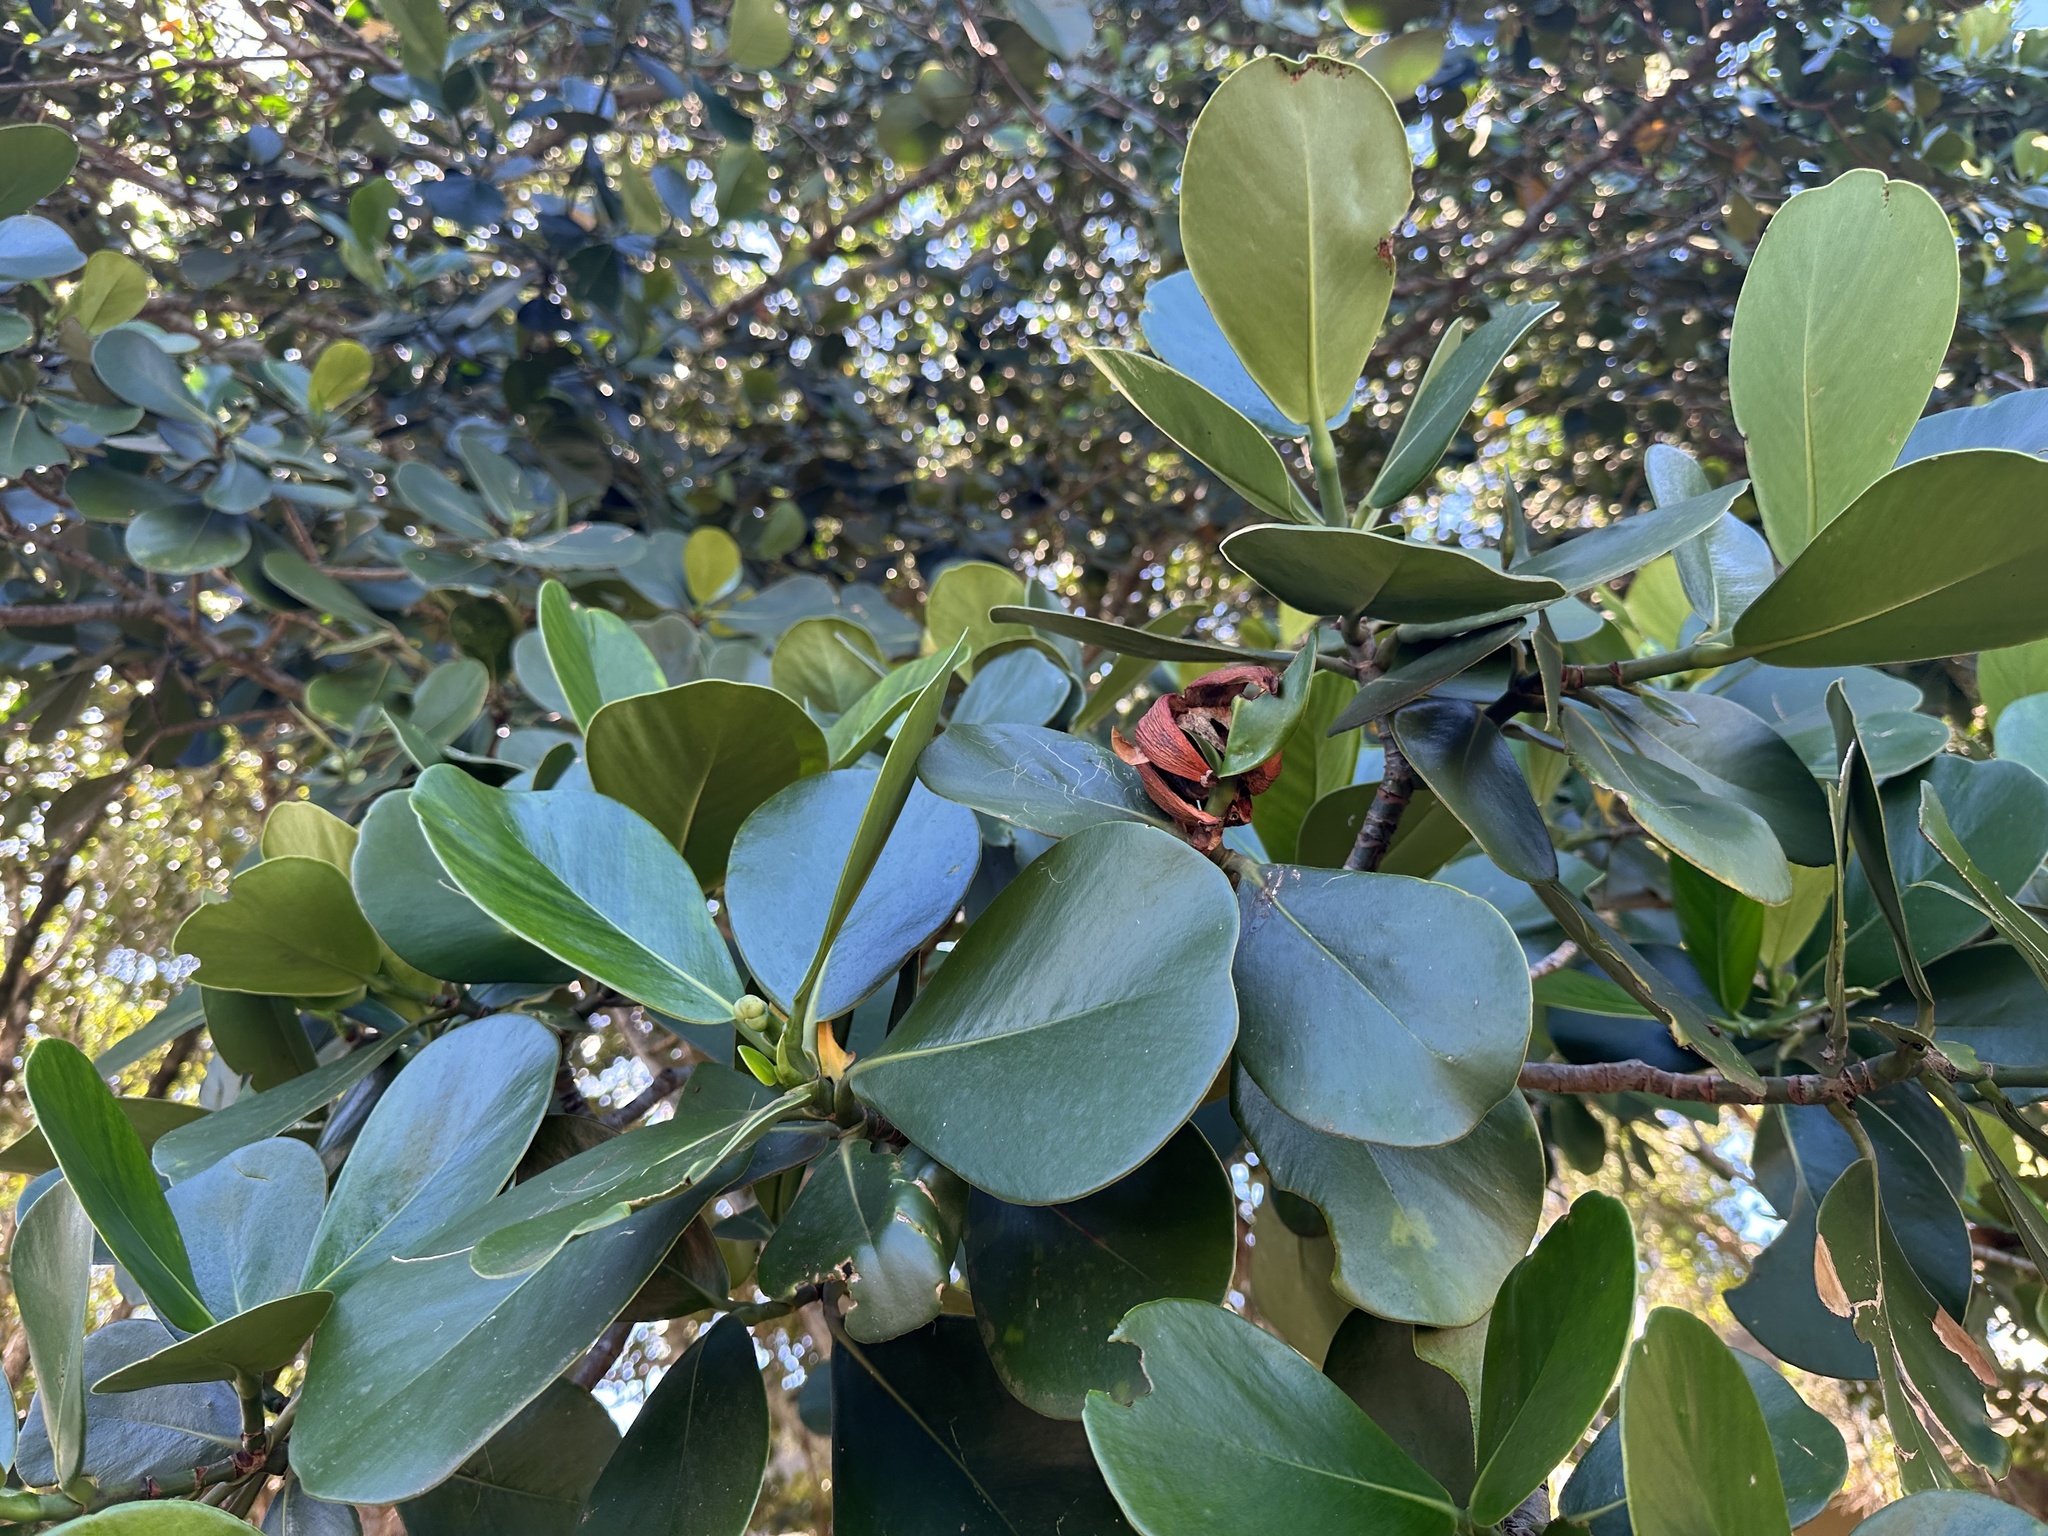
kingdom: Plantae
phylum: Tracheophyta
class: Magnoliopsida
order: Malpighiales
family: Clusiaceae
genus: Clusia
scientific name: Clusia rosea
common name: Scotch attorney
